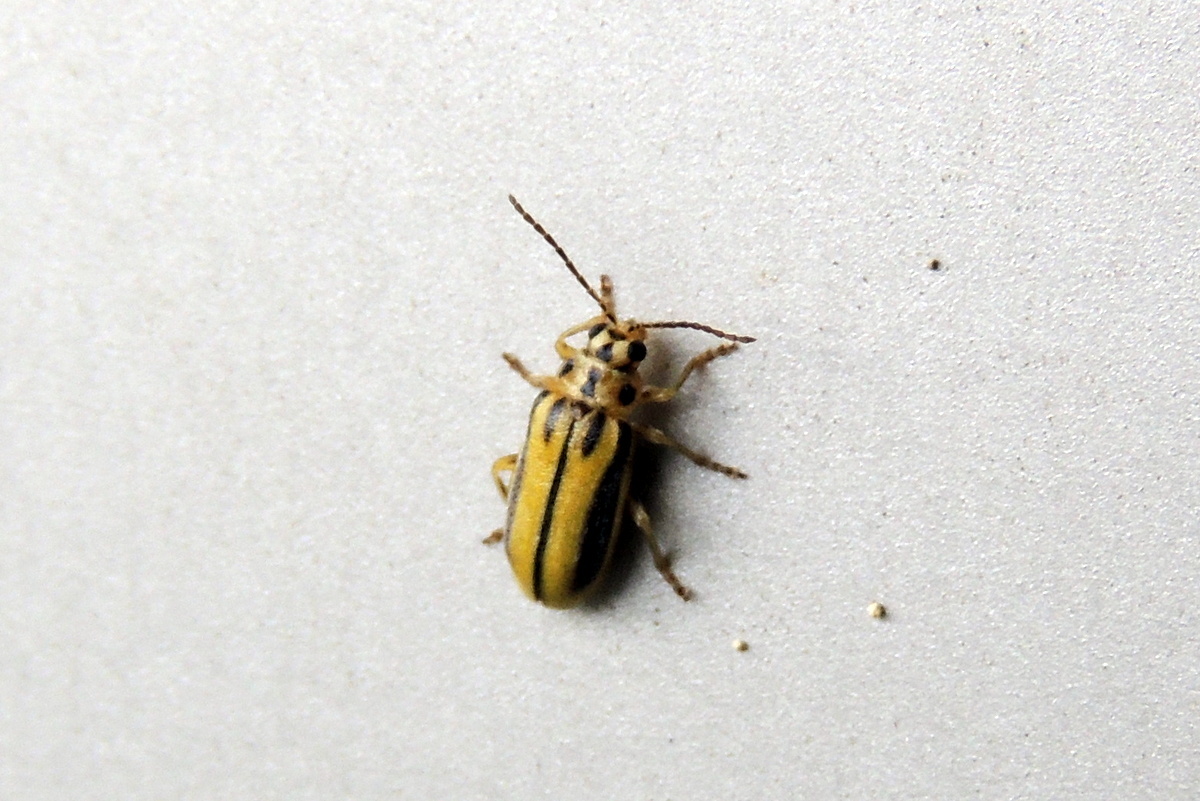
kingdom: Animalia
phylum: Arthropoda
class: Insecta
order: Coleoptera
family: Chrysomelidae
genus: Xanthogaleruca
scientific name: Xanthogaleruca luteola
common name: Elm leaf beetle
